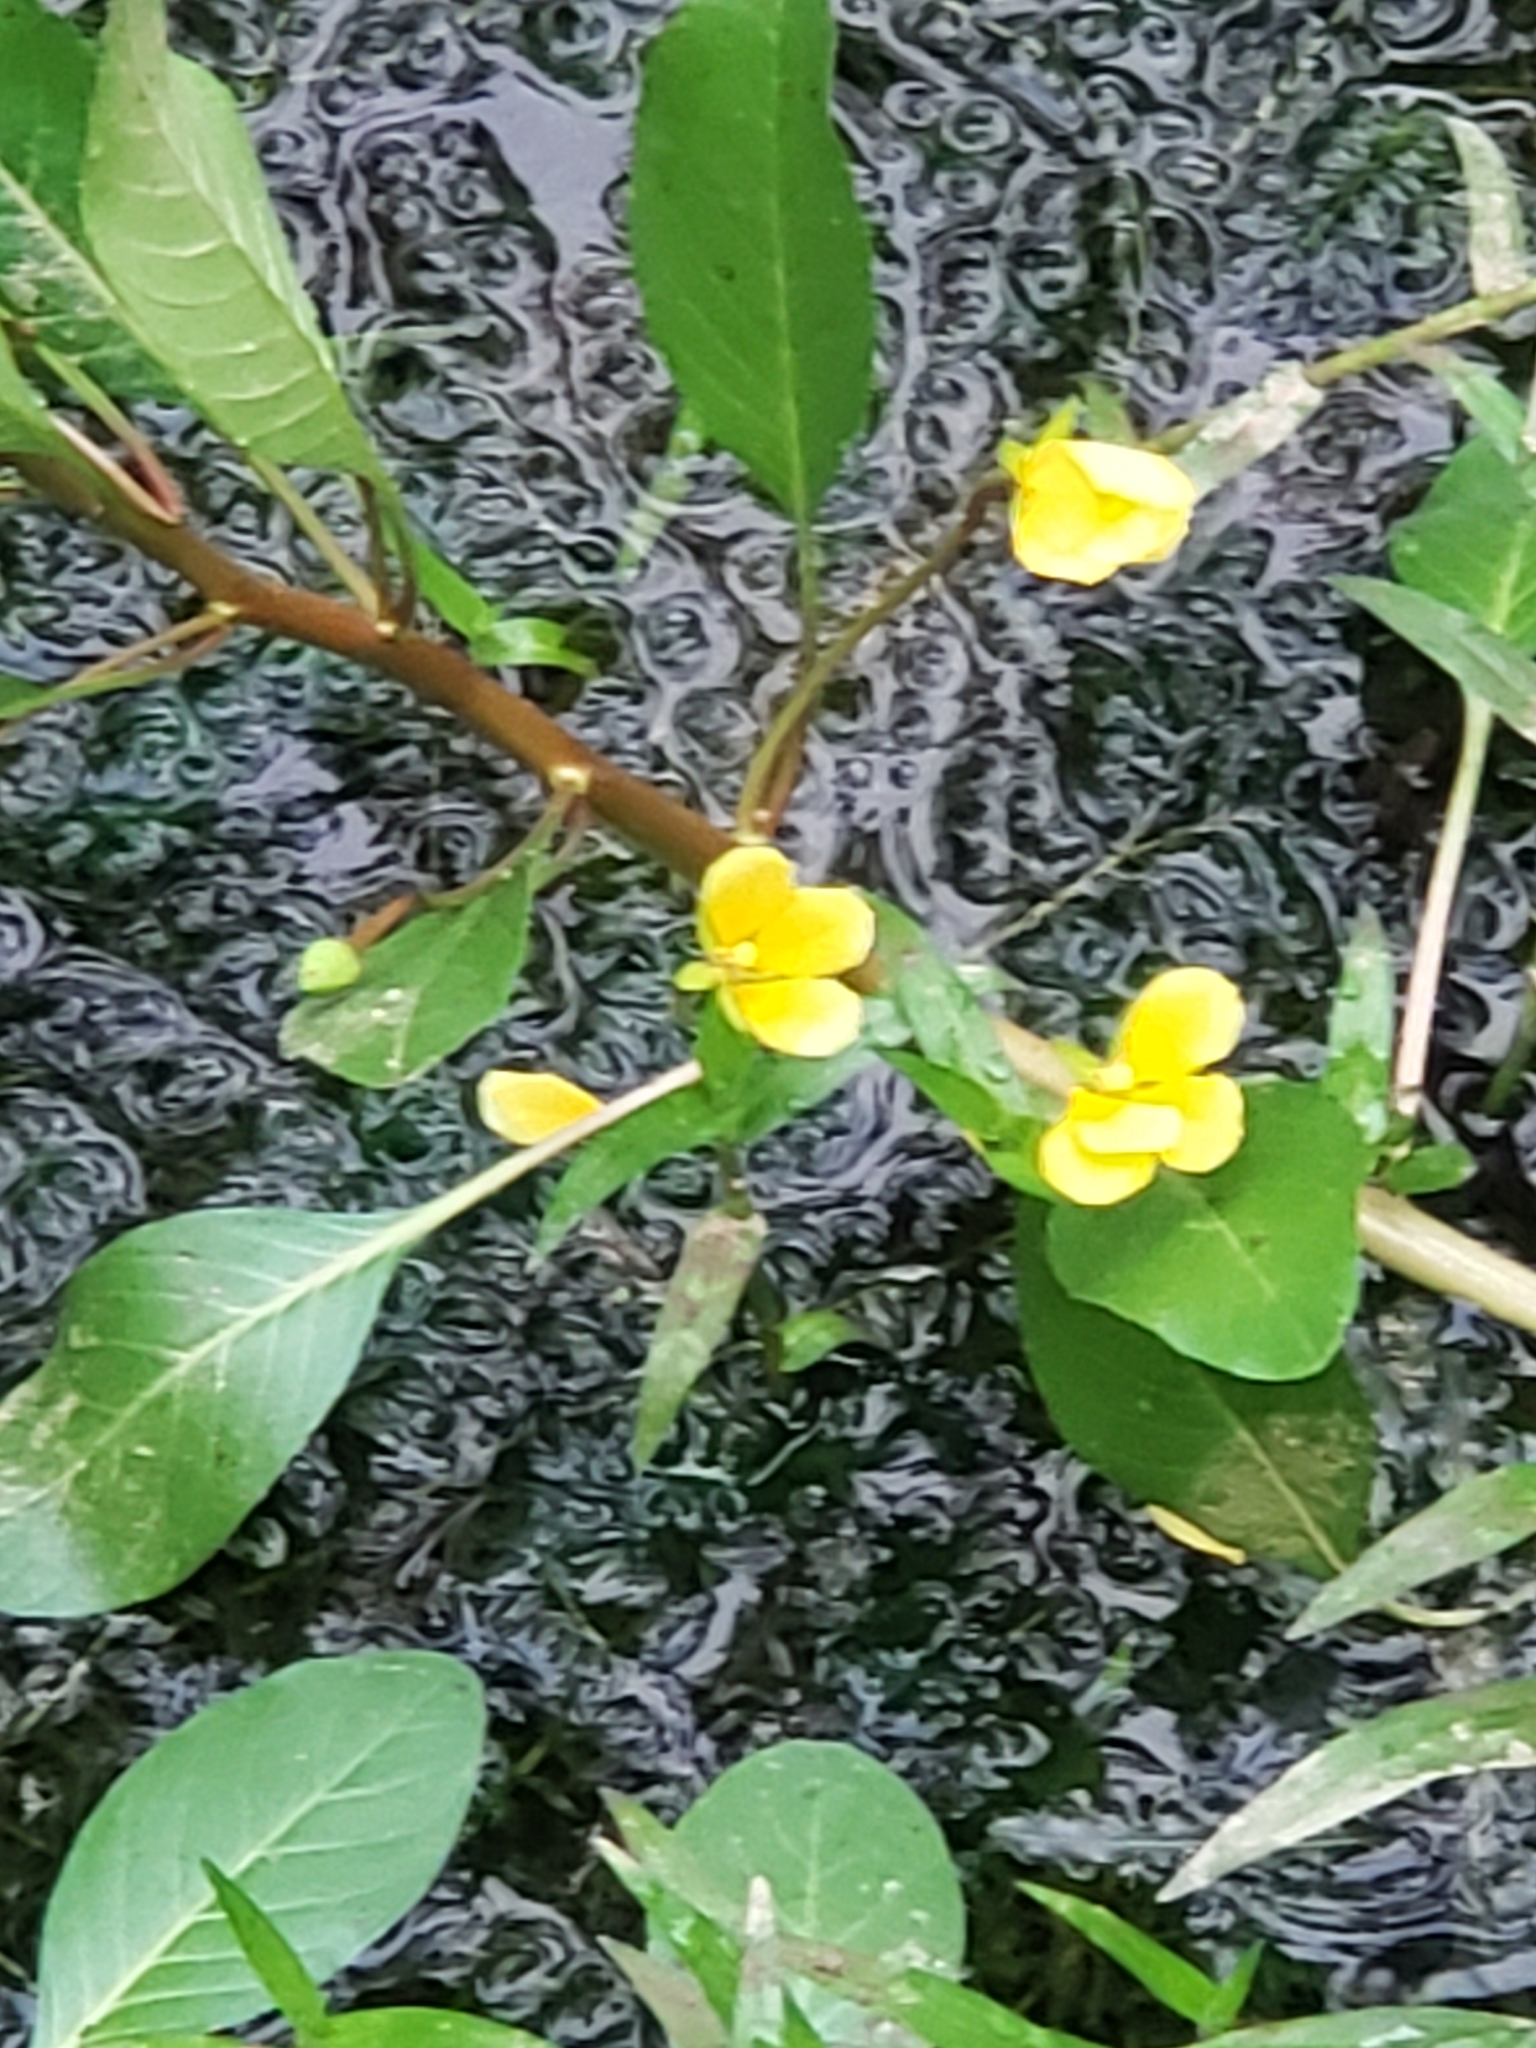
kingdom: Plantae
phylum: Tracheophyta
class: Magnoliopsida
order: Myrtales
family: Onagraceae
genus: Ludwigia
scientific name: Ludwigia peploides
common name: Floating primrose-willow
